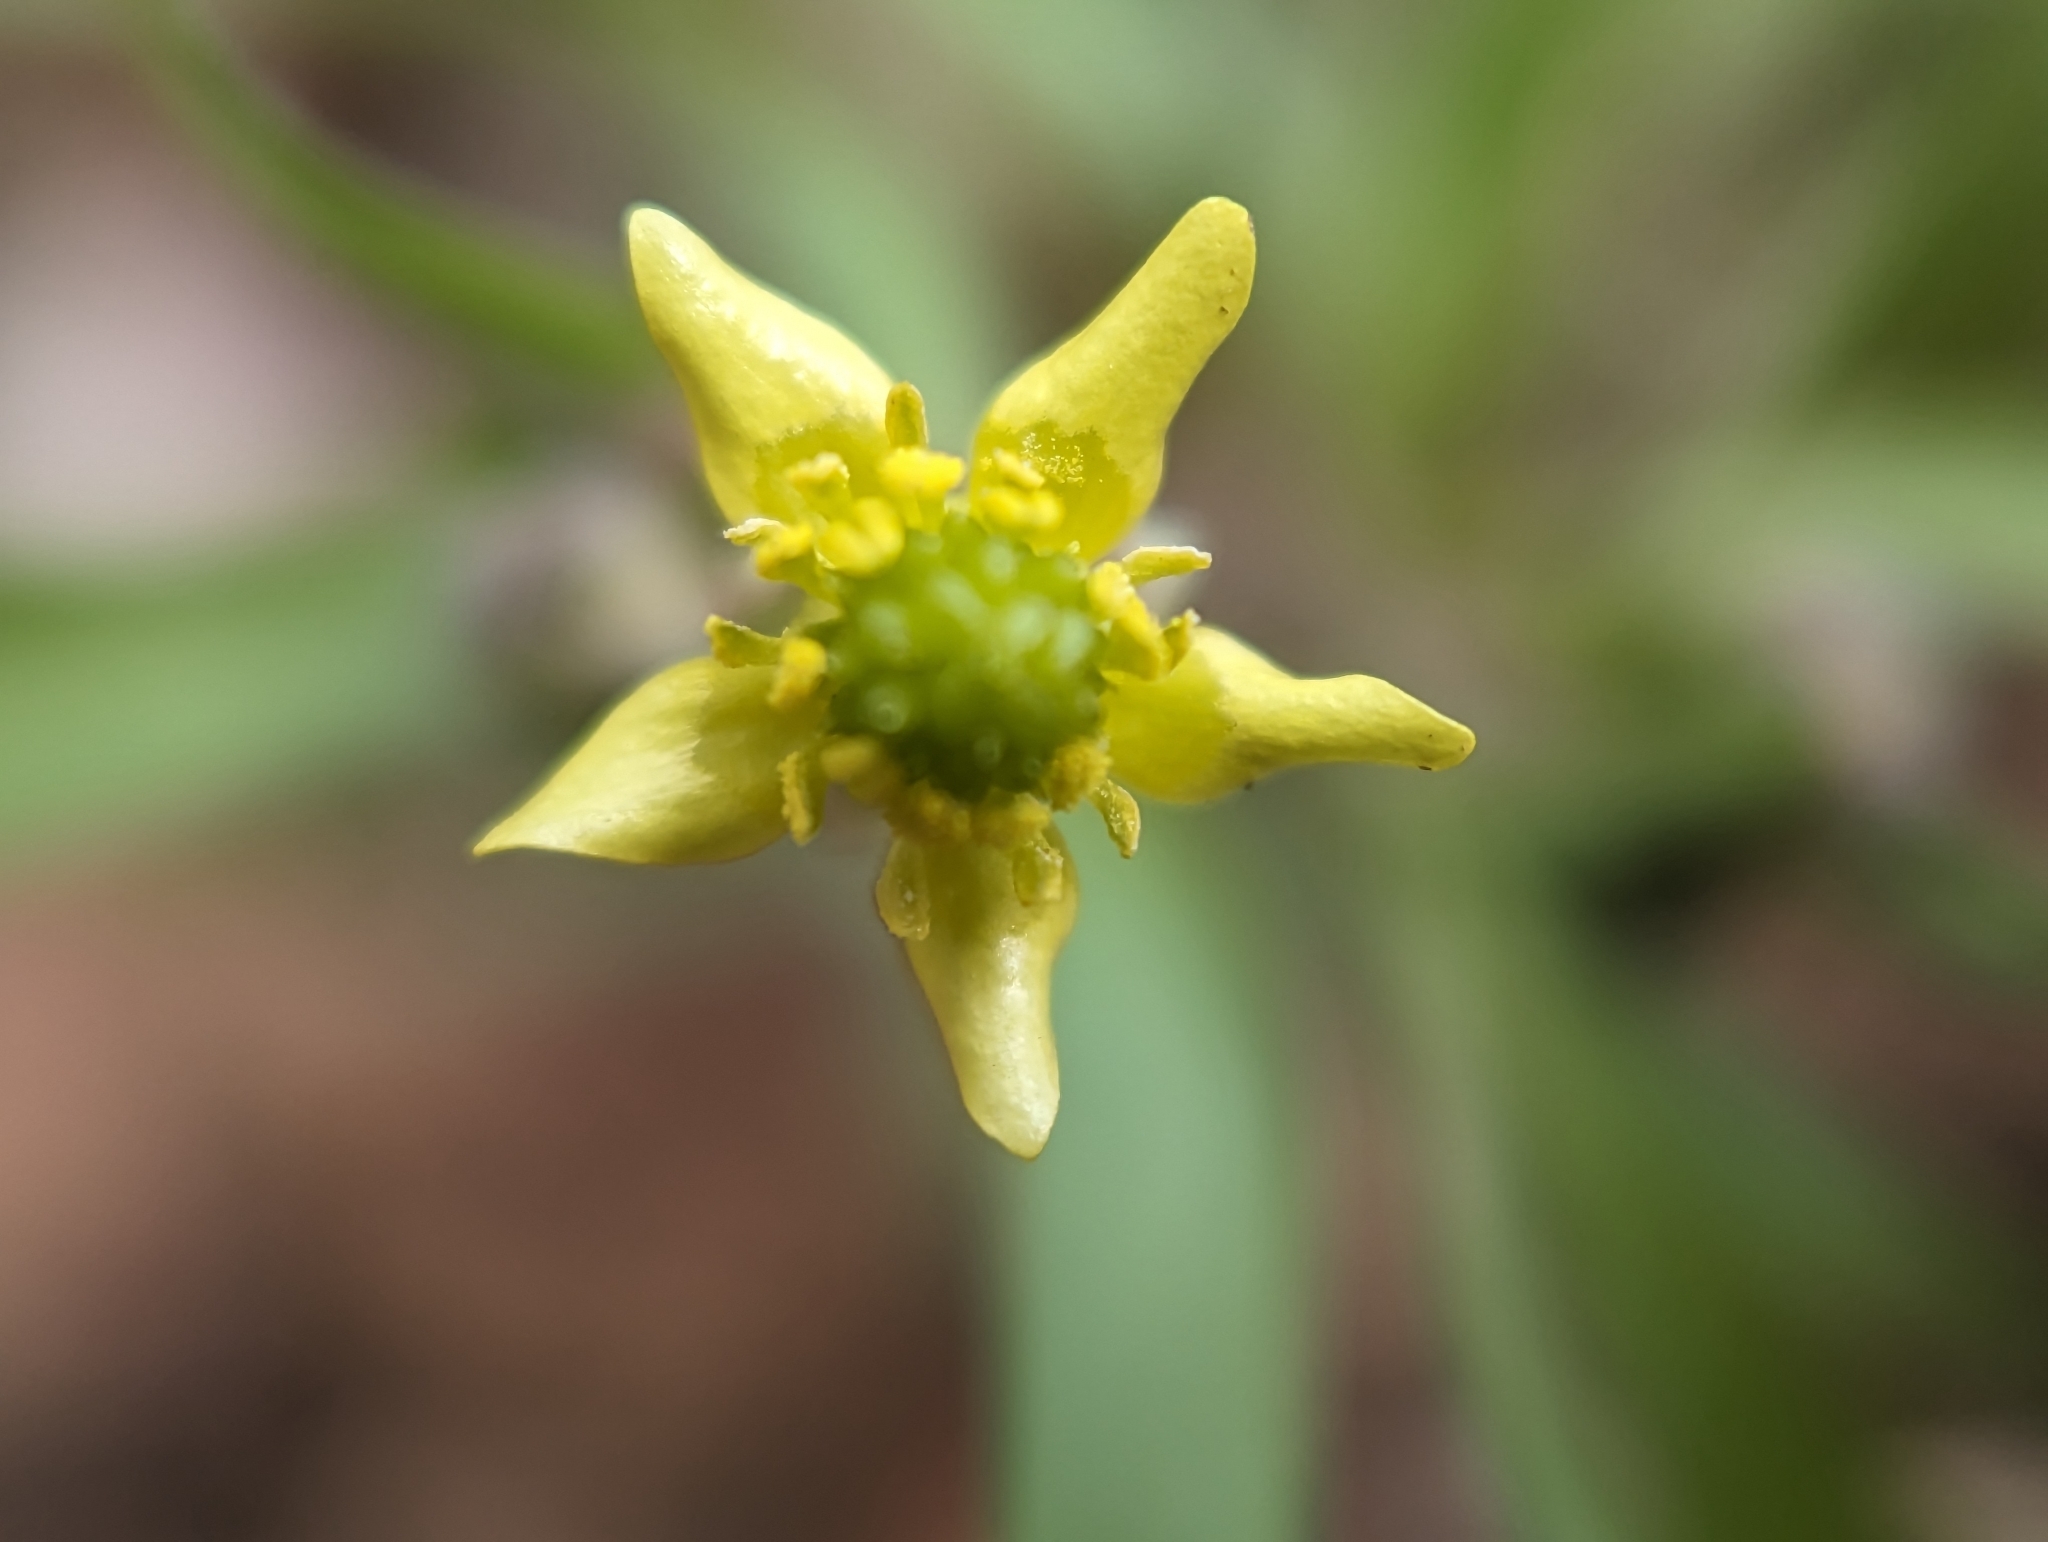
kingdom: Plantae
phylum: Tracheophyta
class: Magnoliopsida
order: Ranunculales
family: Ranunculaceae
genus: Ranunculus
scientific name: Ranunculus micranthus
